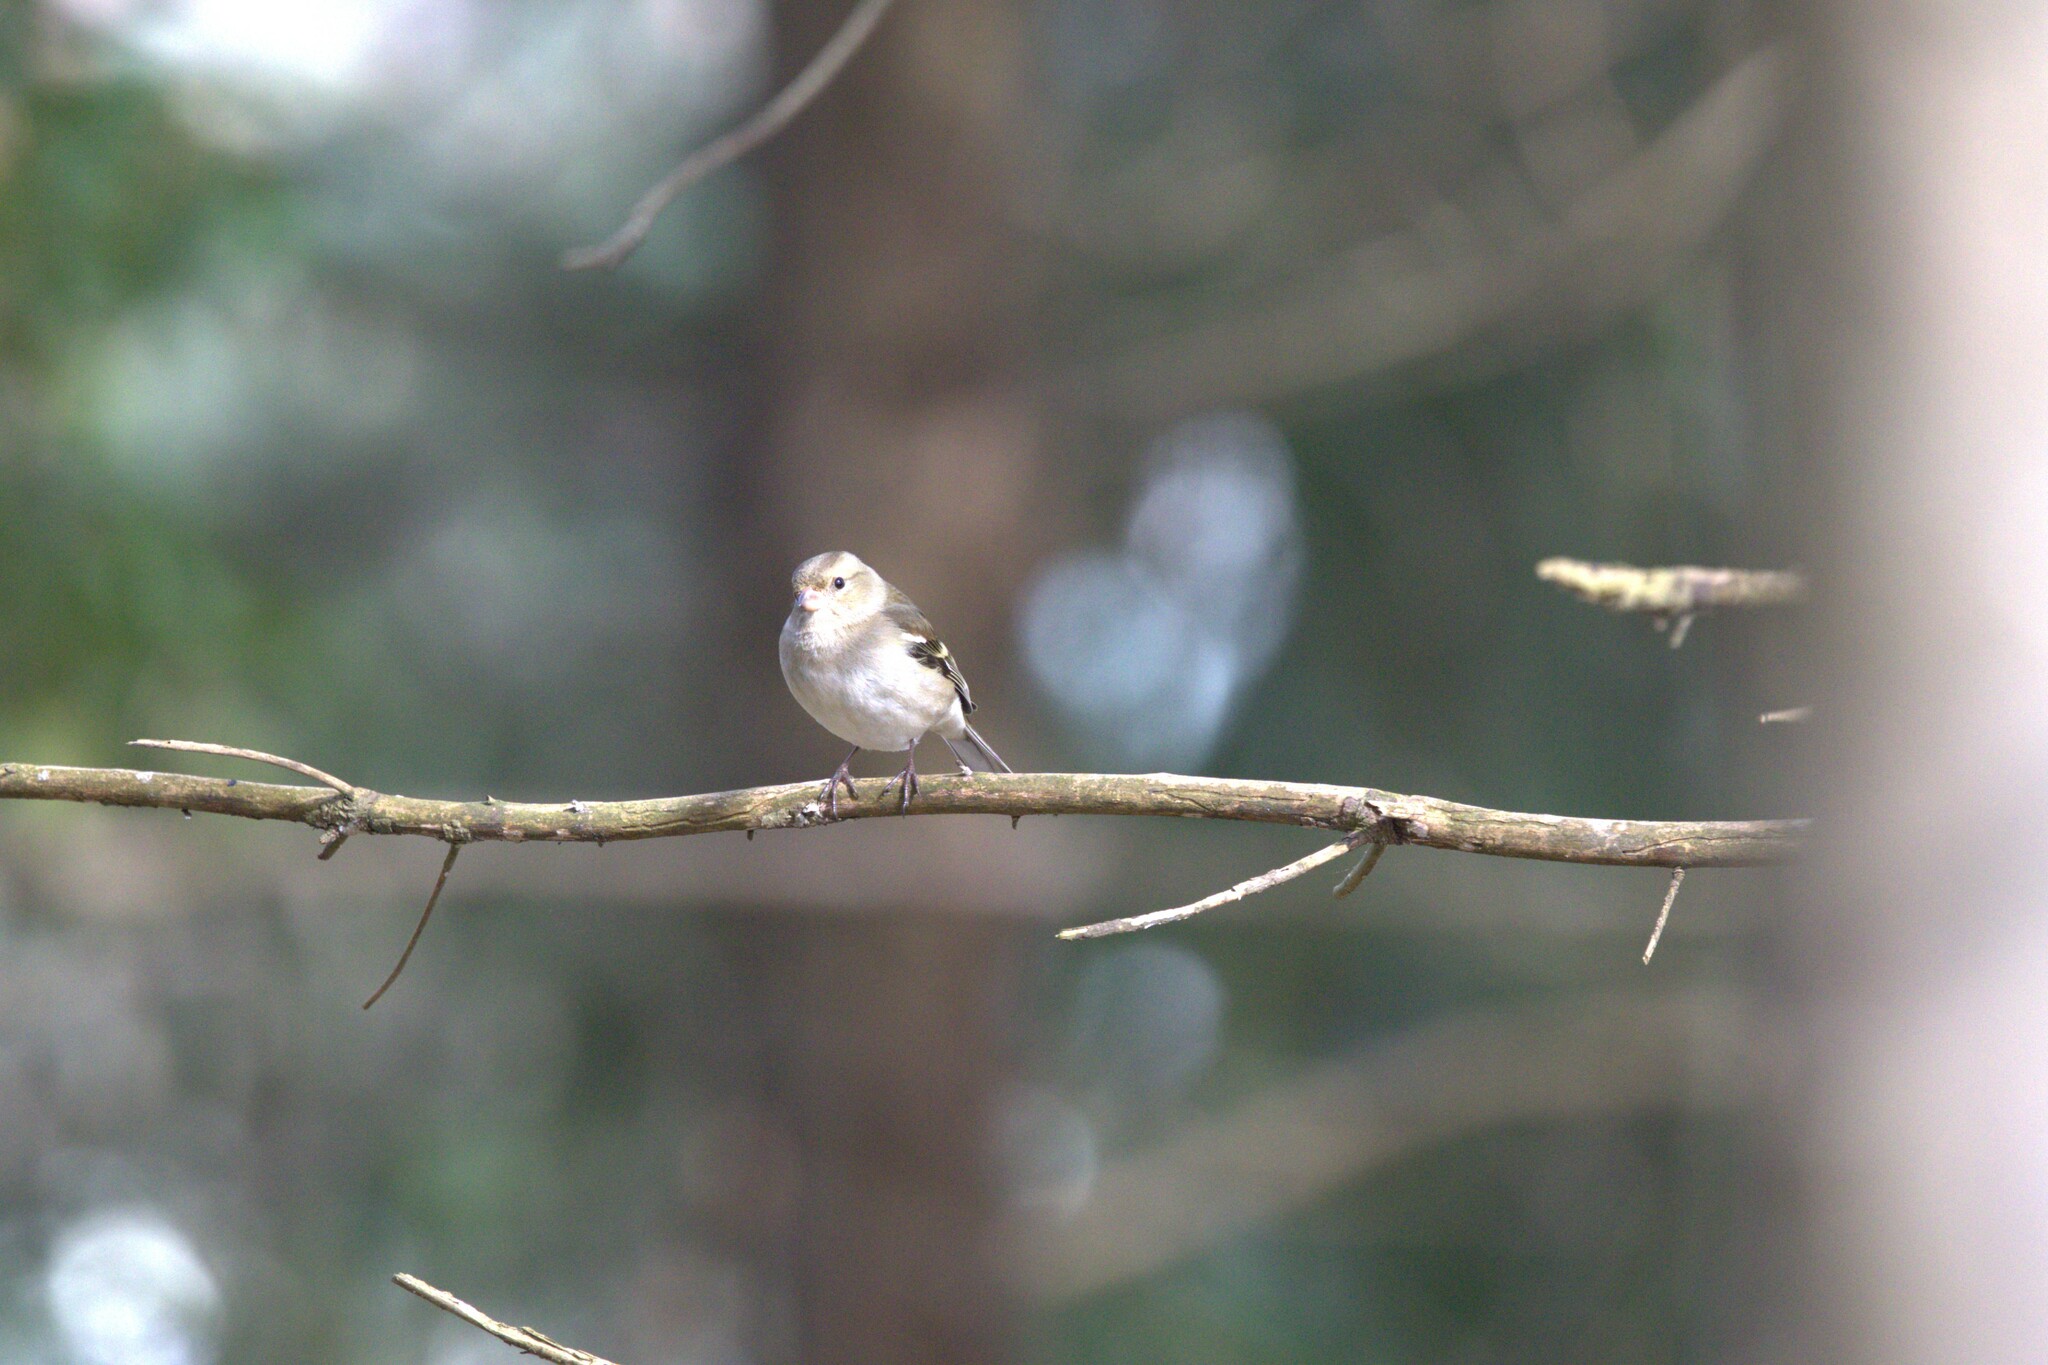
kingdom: Animalia
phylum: Chordata
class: Aves
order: Passeriformes
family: Fringillidae
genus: Fringilla
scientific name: Fringilla coelebs
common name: Common chaffinch
